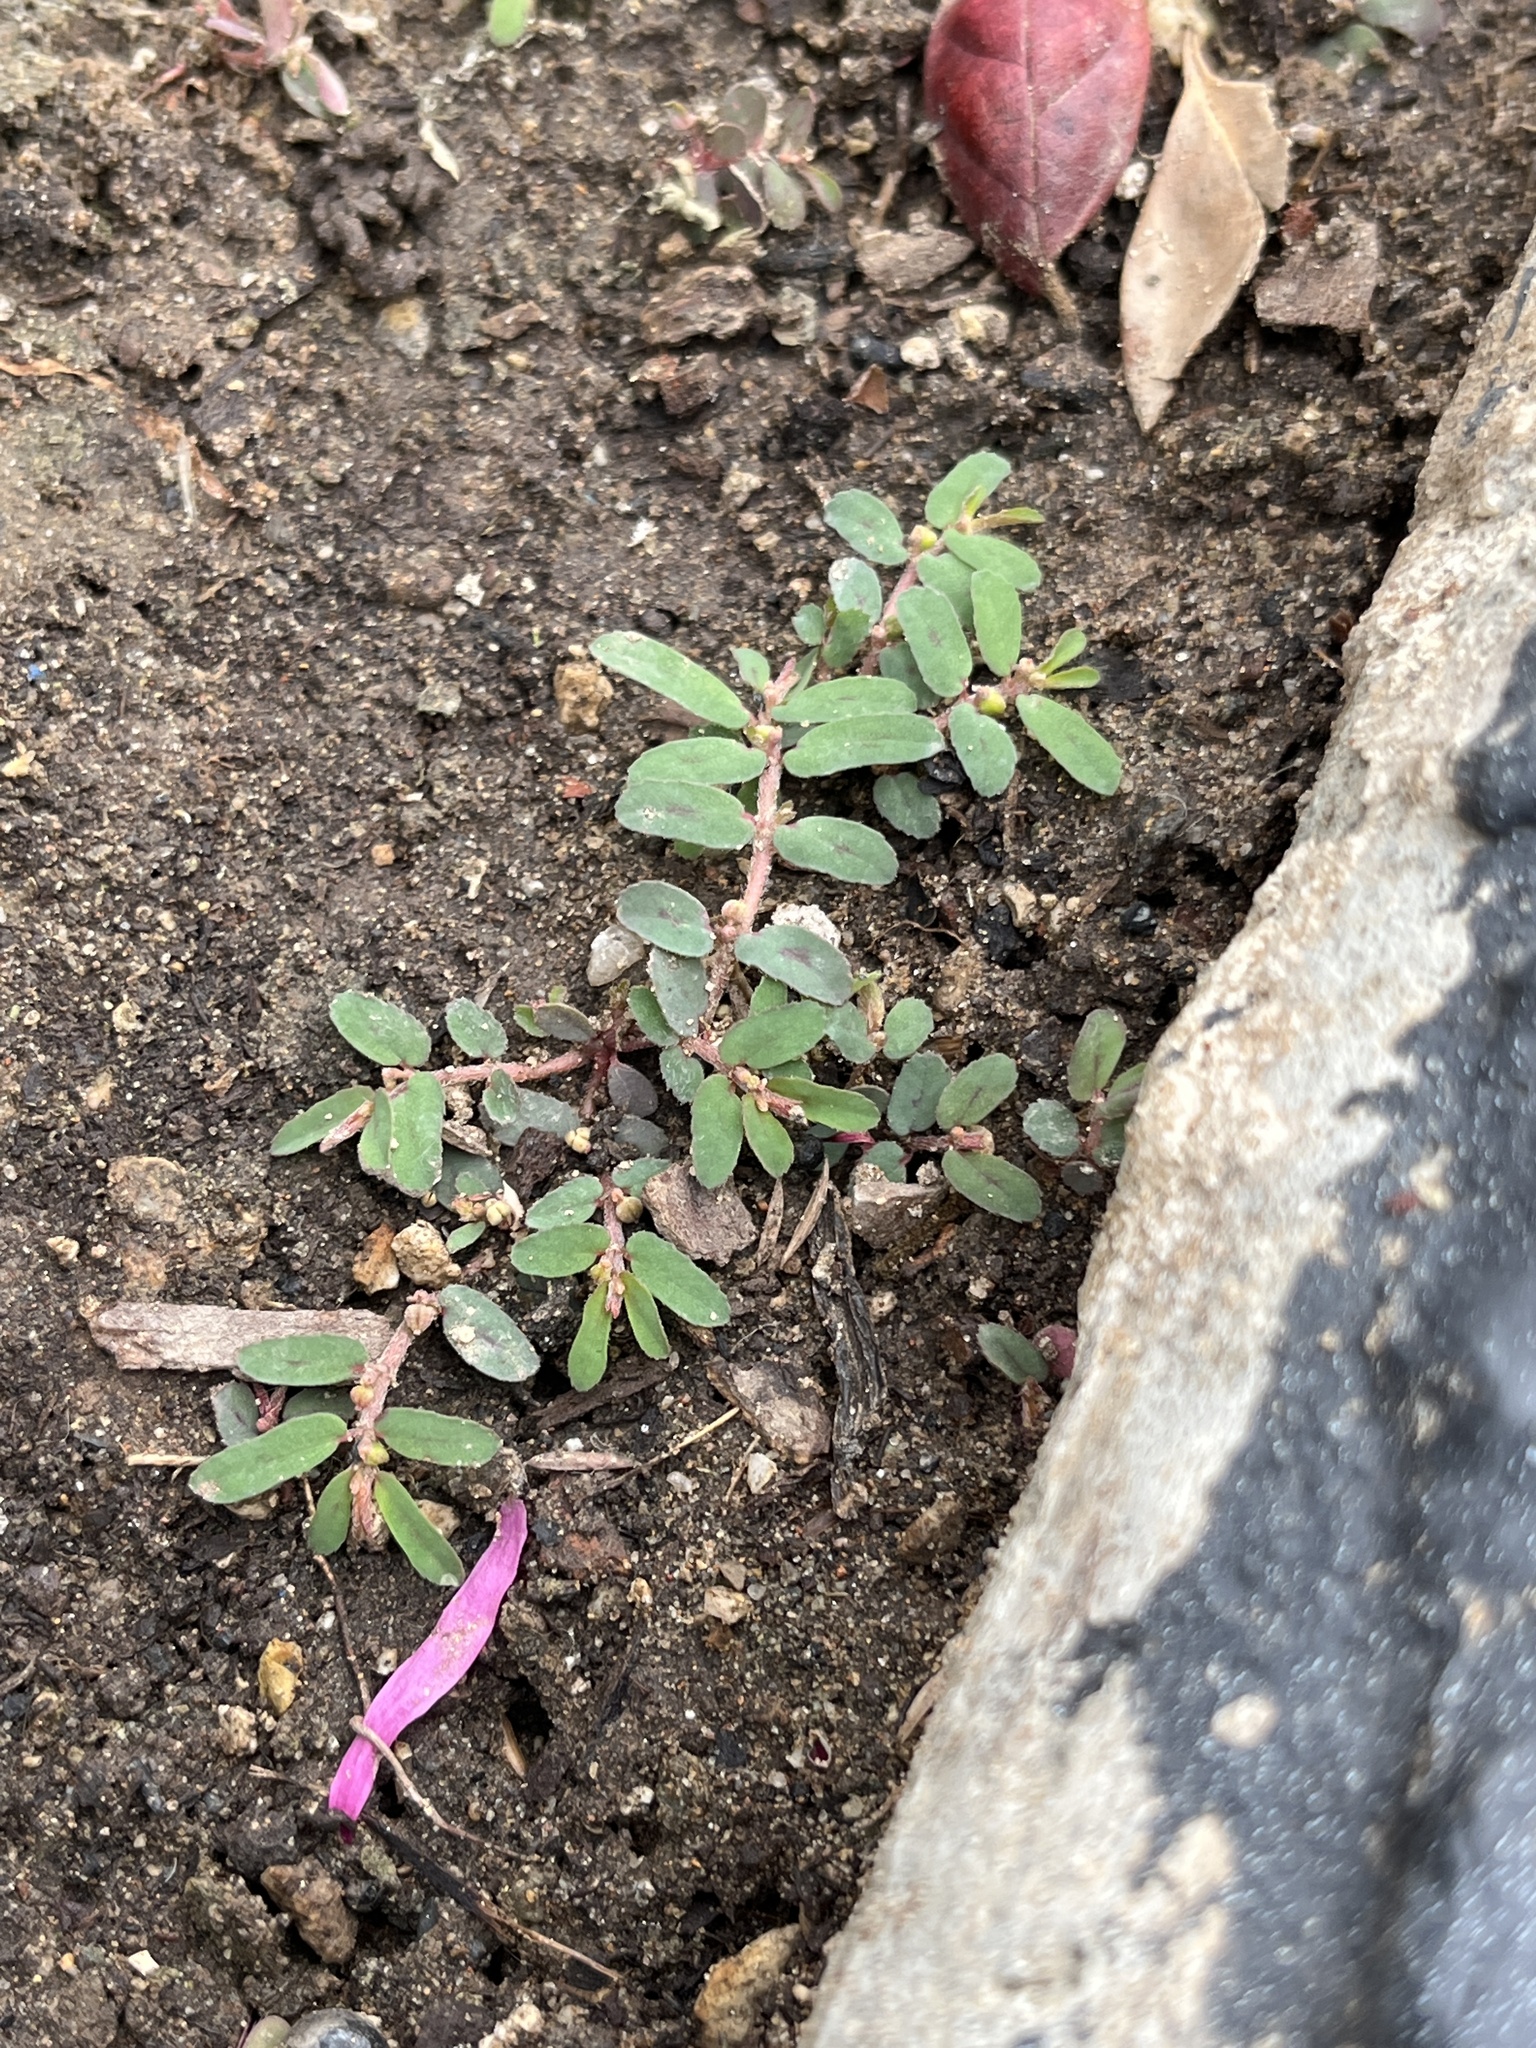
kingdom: Plantae
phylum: Tracheophyta
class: Magnoliopsida
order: Malpighiales
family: Euphorbiaceae
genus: Euphorbia
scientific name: Euphorbia maculata
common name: Spotted spurge
